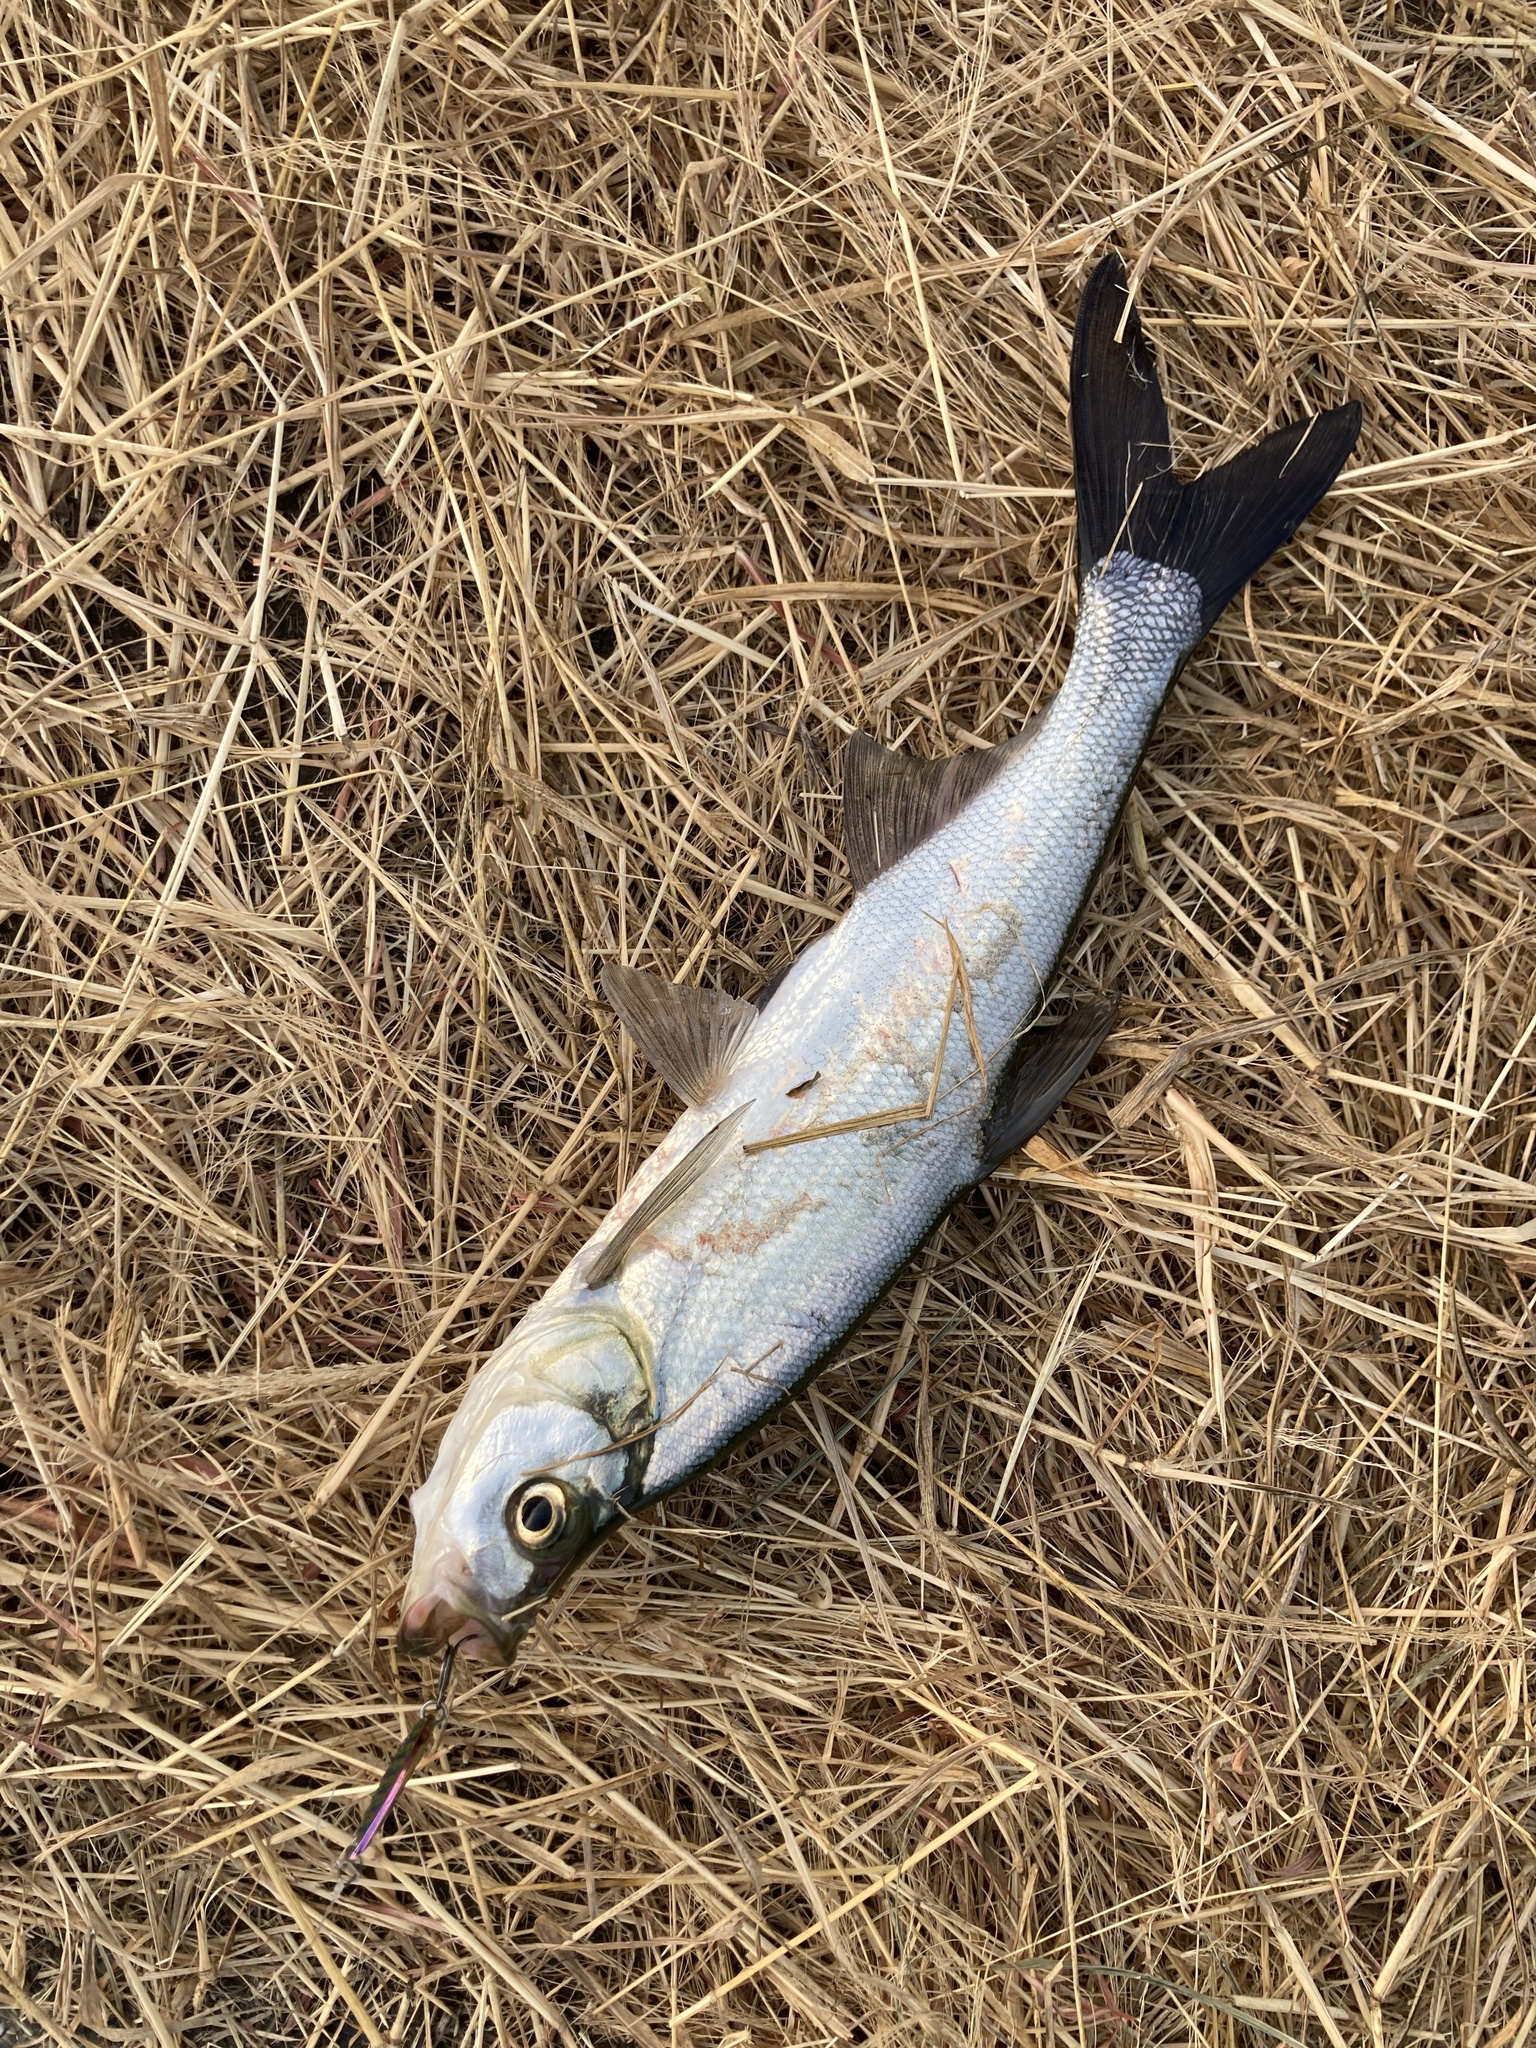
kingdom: Animalia
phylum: Chordata
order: Cypriniformes
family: Cyprinidae
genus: Culter
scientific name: Culter alburnus
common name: Grass carp
